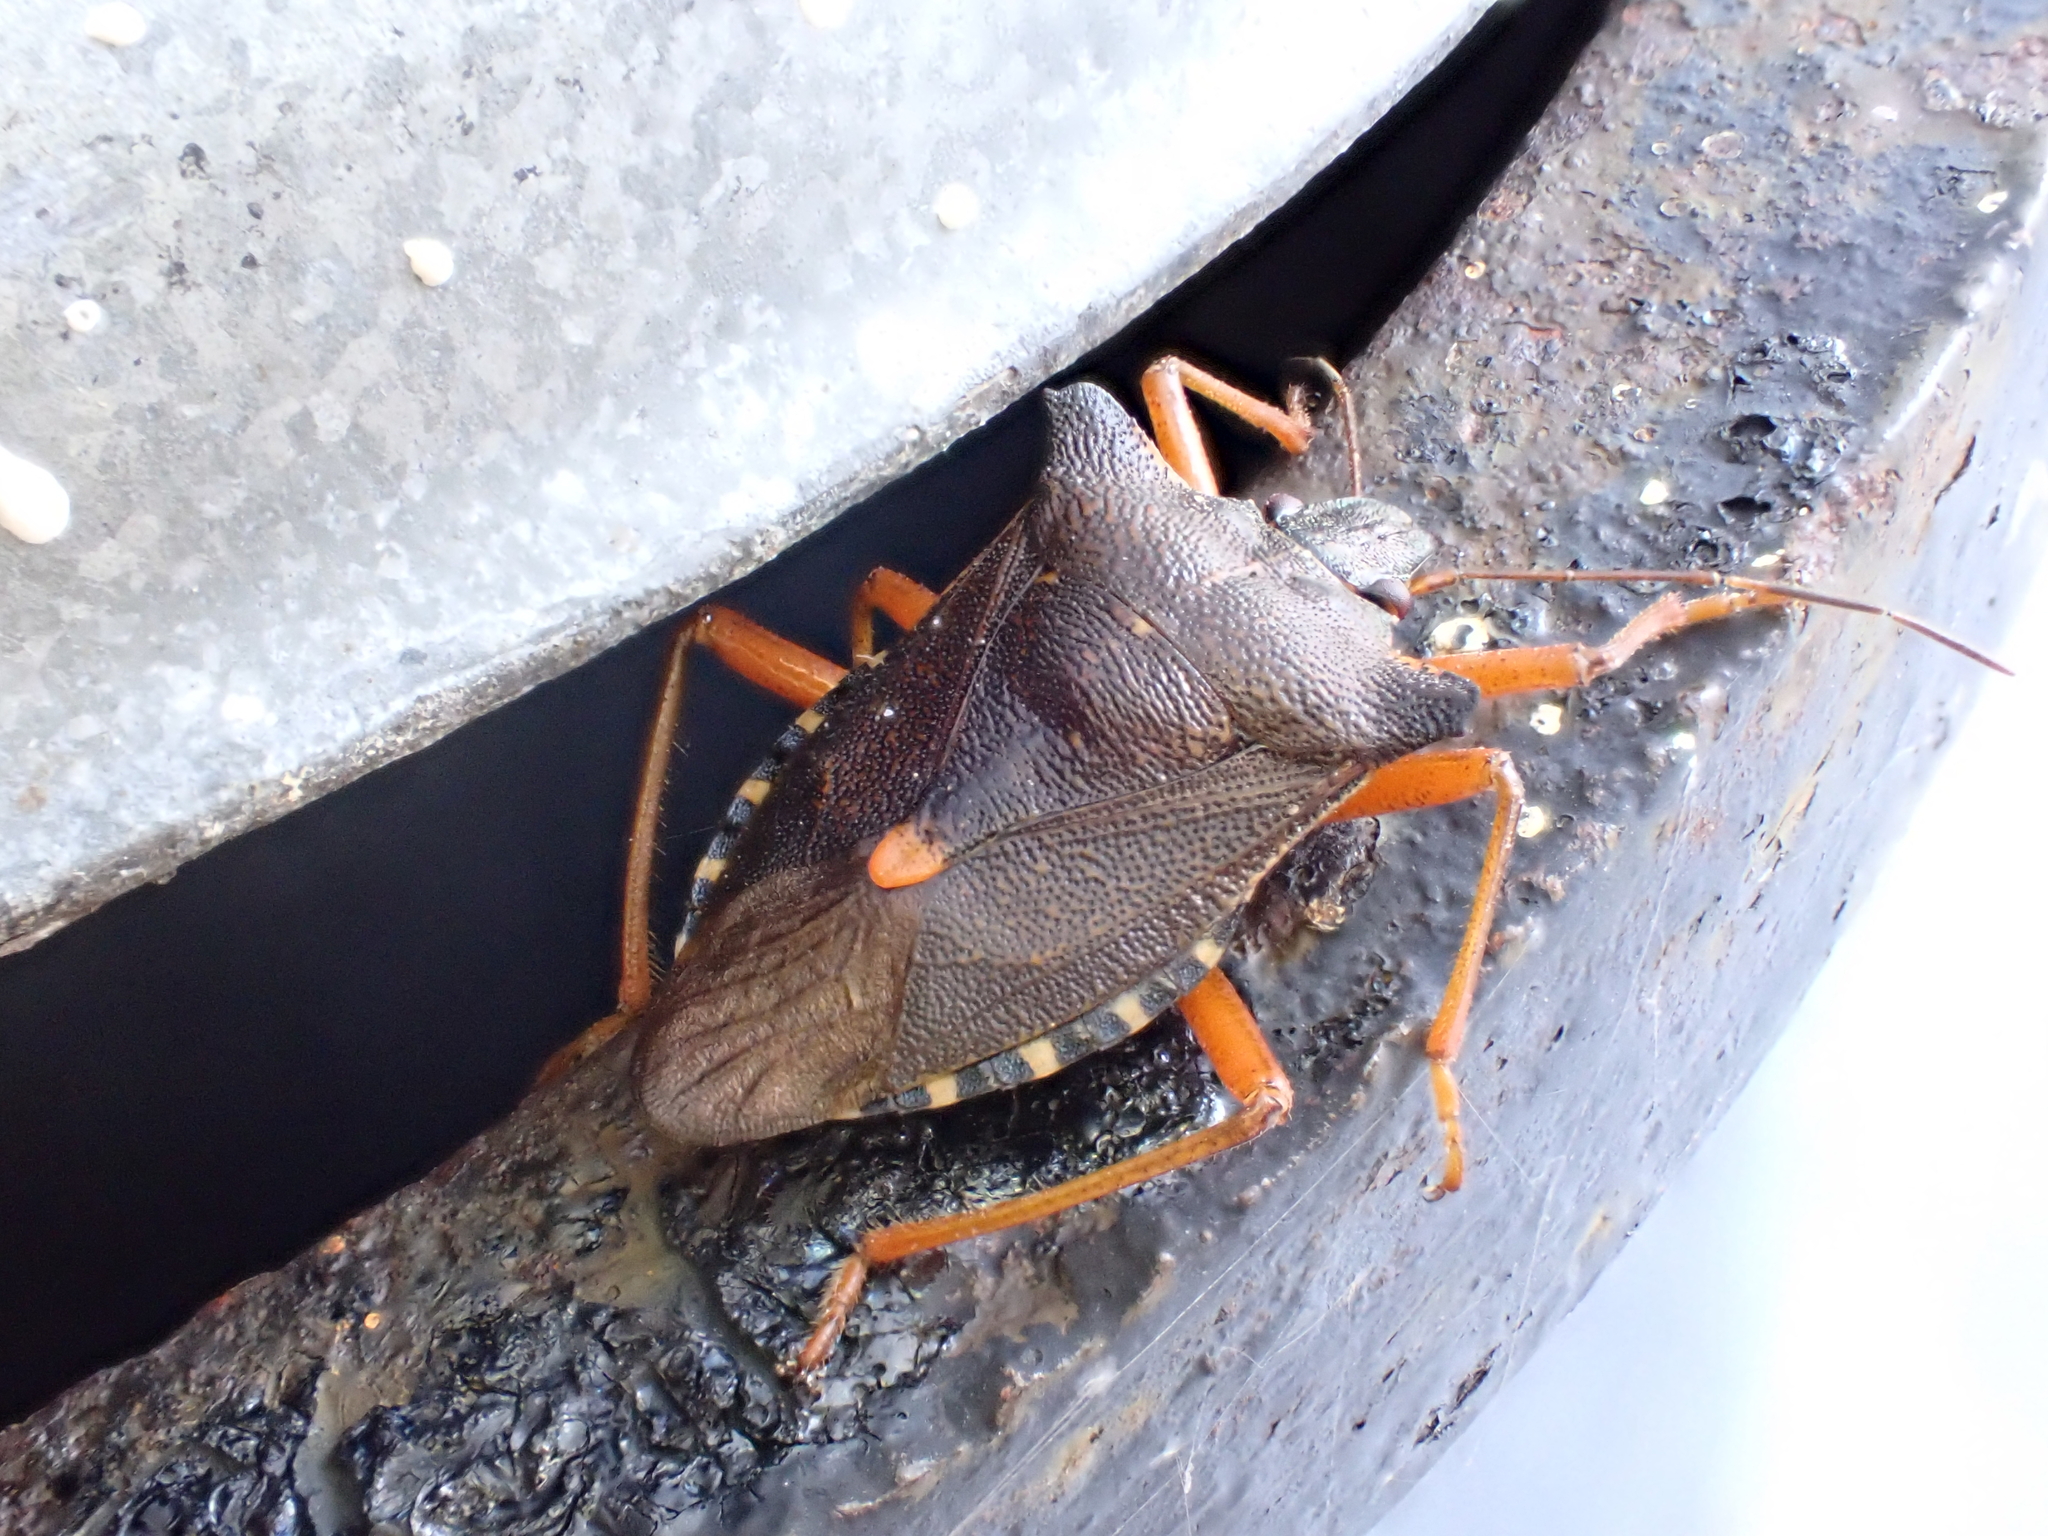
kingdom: Animalia
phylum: Arthropoda
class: Insecta
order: Hemiptera
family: Pentatomidae
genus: Pentatoma
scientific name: Pentatoma rufipes
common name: Forest bug
